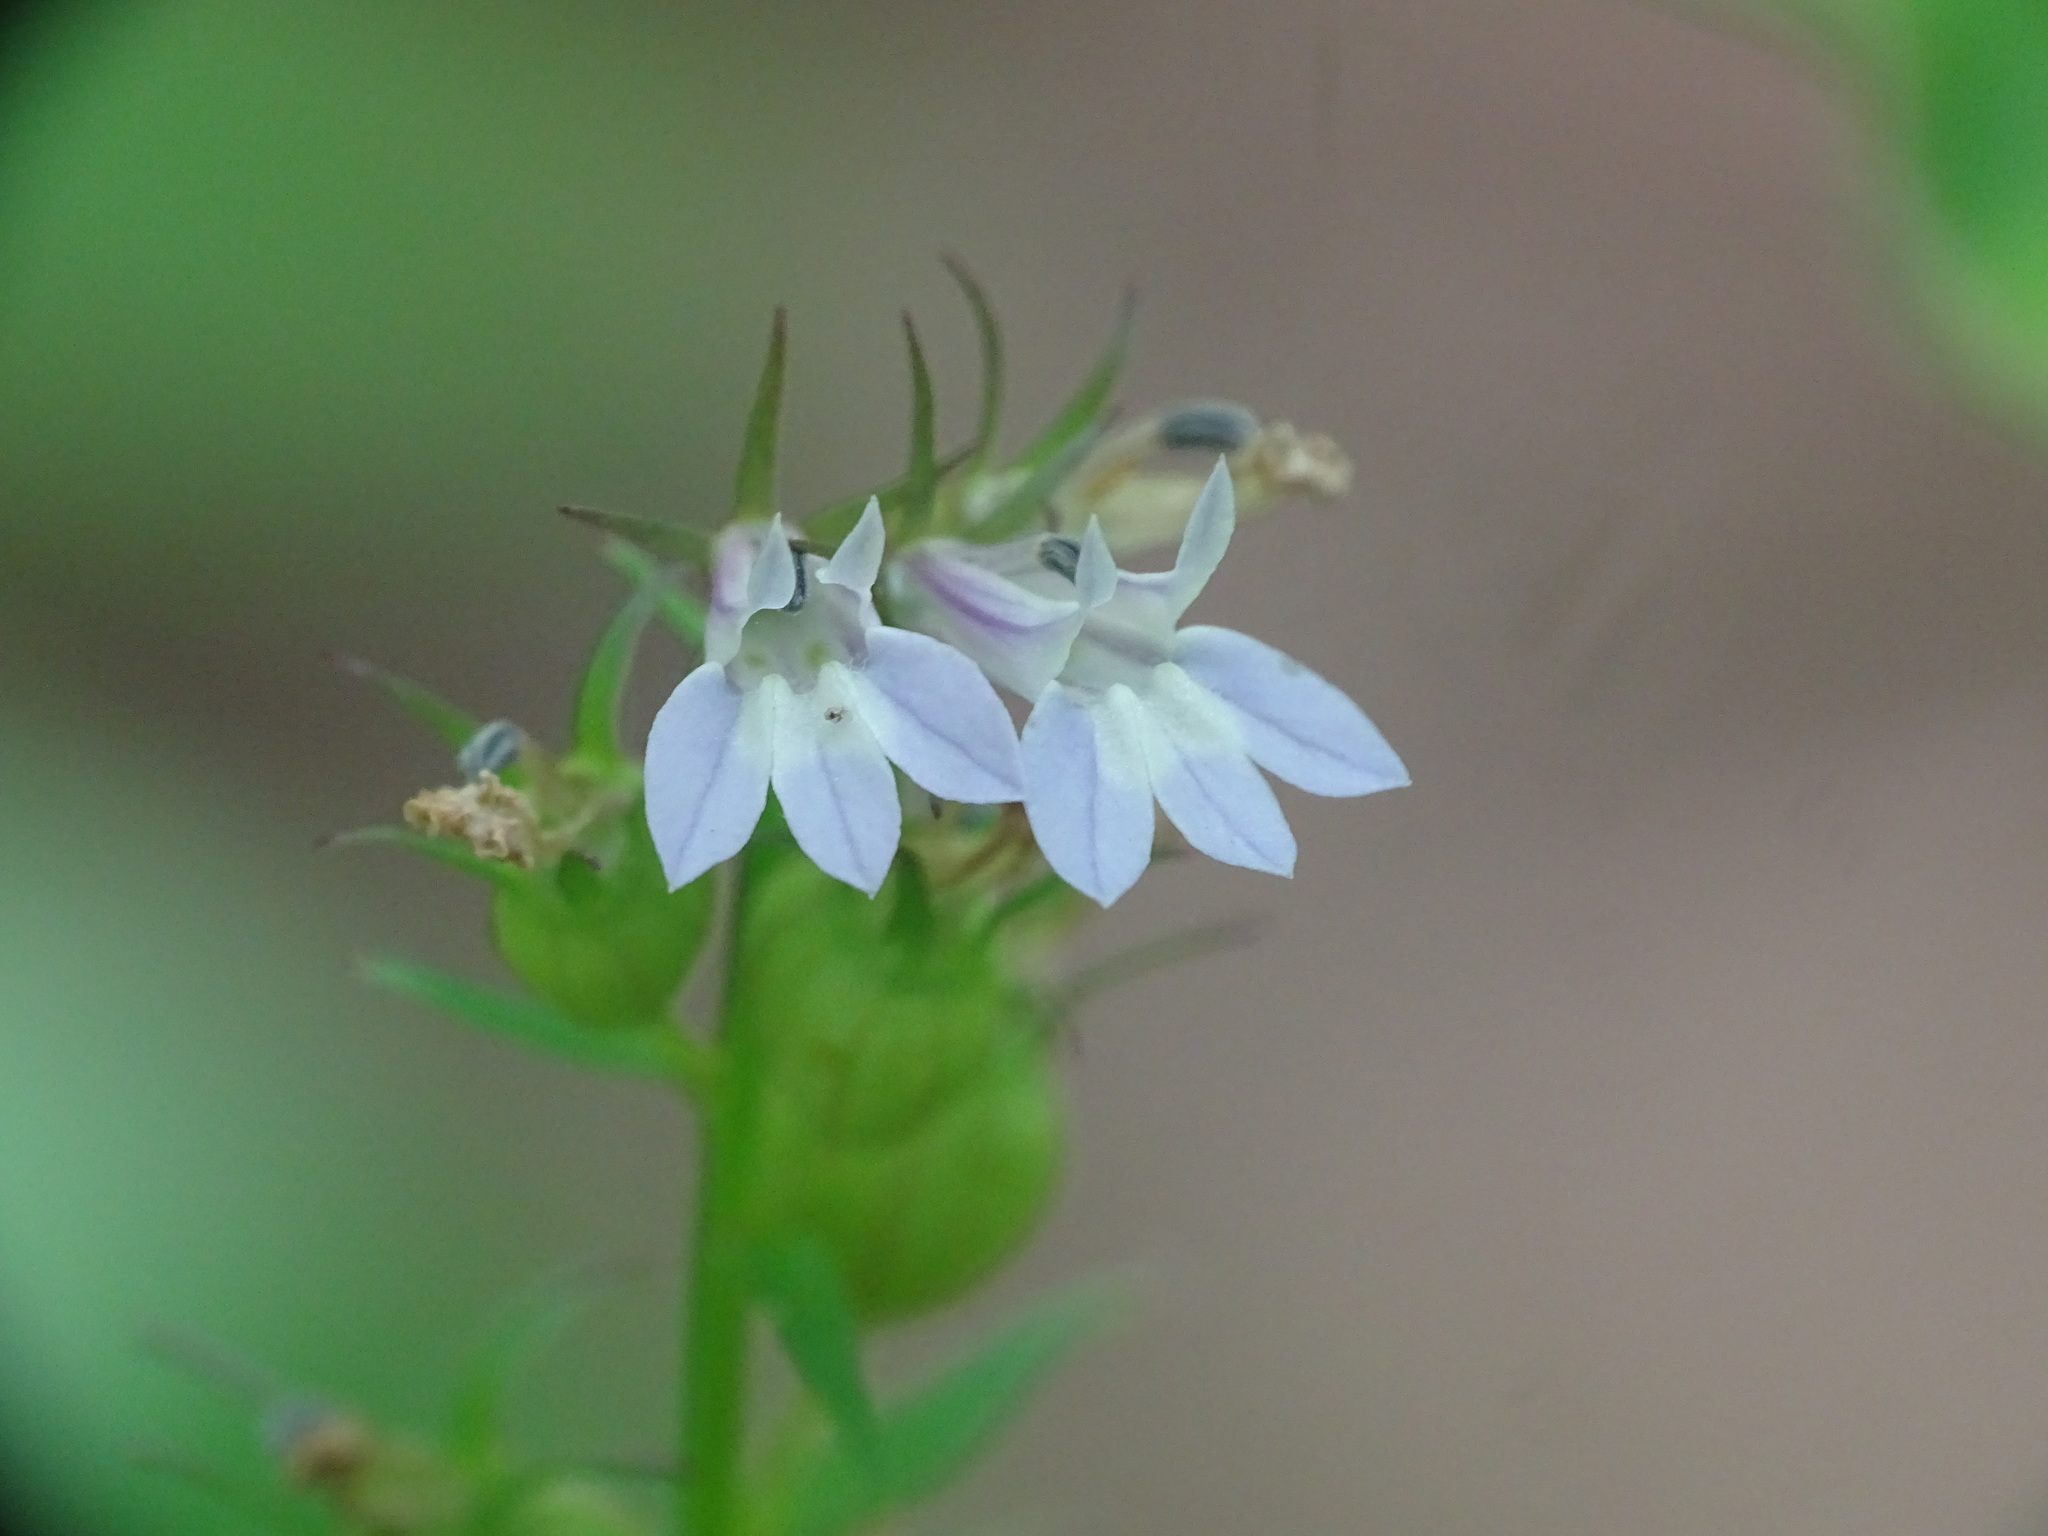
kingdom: Plantae
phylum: Tracheophyta
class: Magnoliopsida
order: Asterales
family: Campanulaceae
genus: Lobelia
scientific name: Lobelia inflata
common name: Indian tobacco
